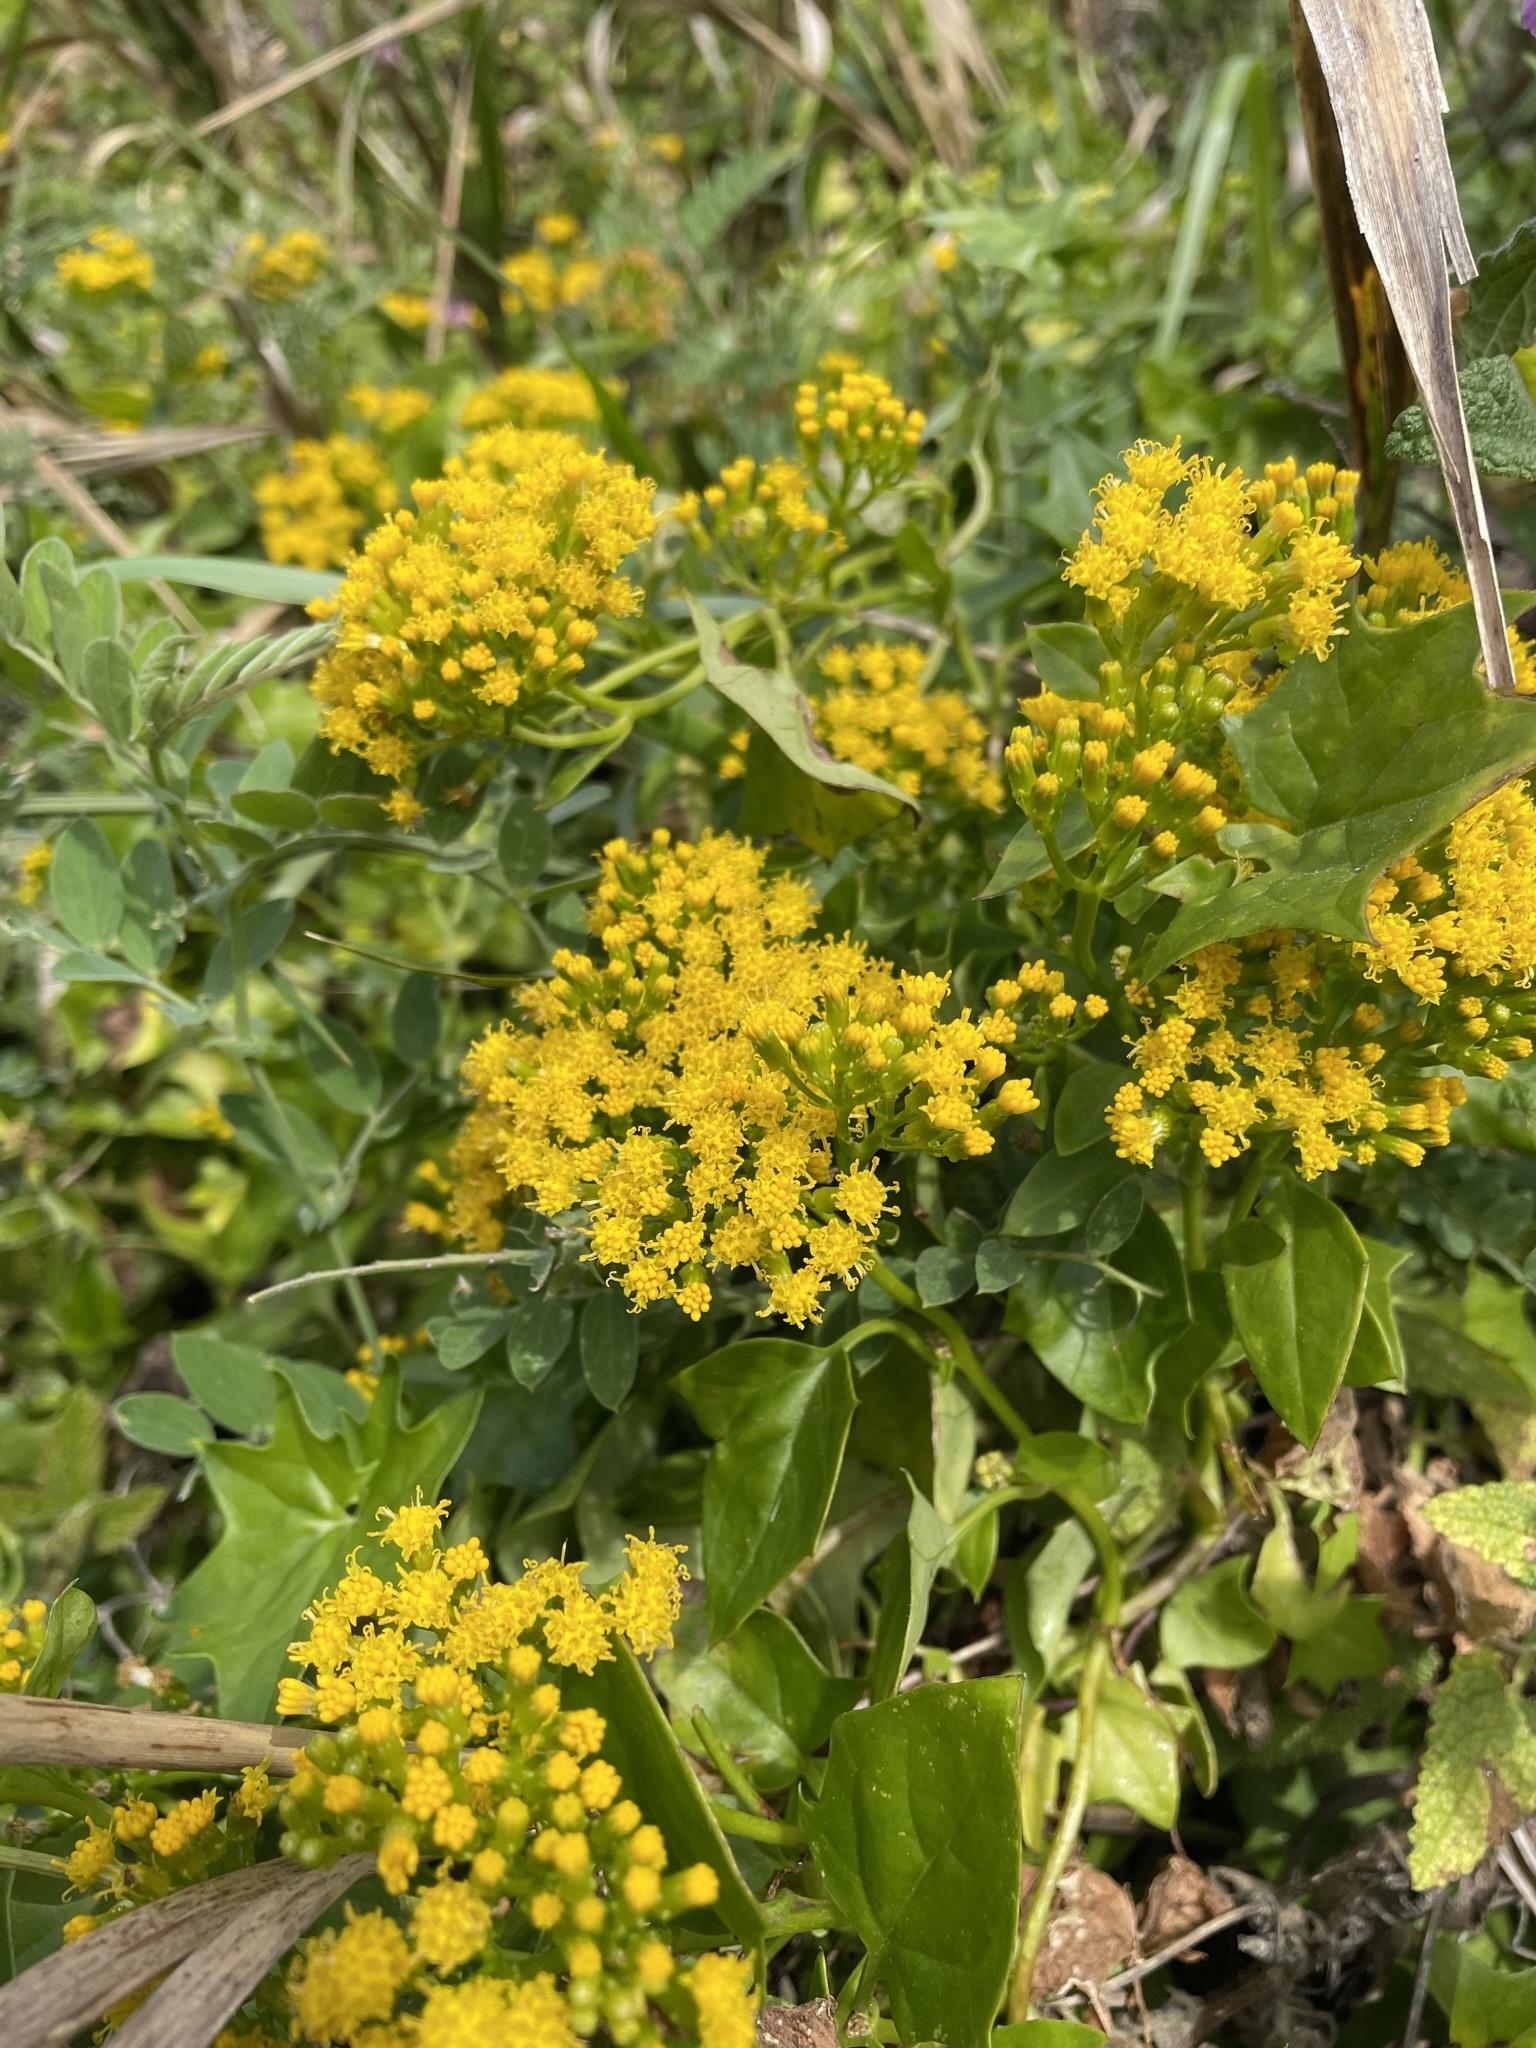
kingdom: Plantae
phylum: Tracheophyta
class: Magnoliopsida
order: Asterales
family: Asteraceae
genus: Delairea
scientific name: Delairea odorata
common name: Cape-ivy
